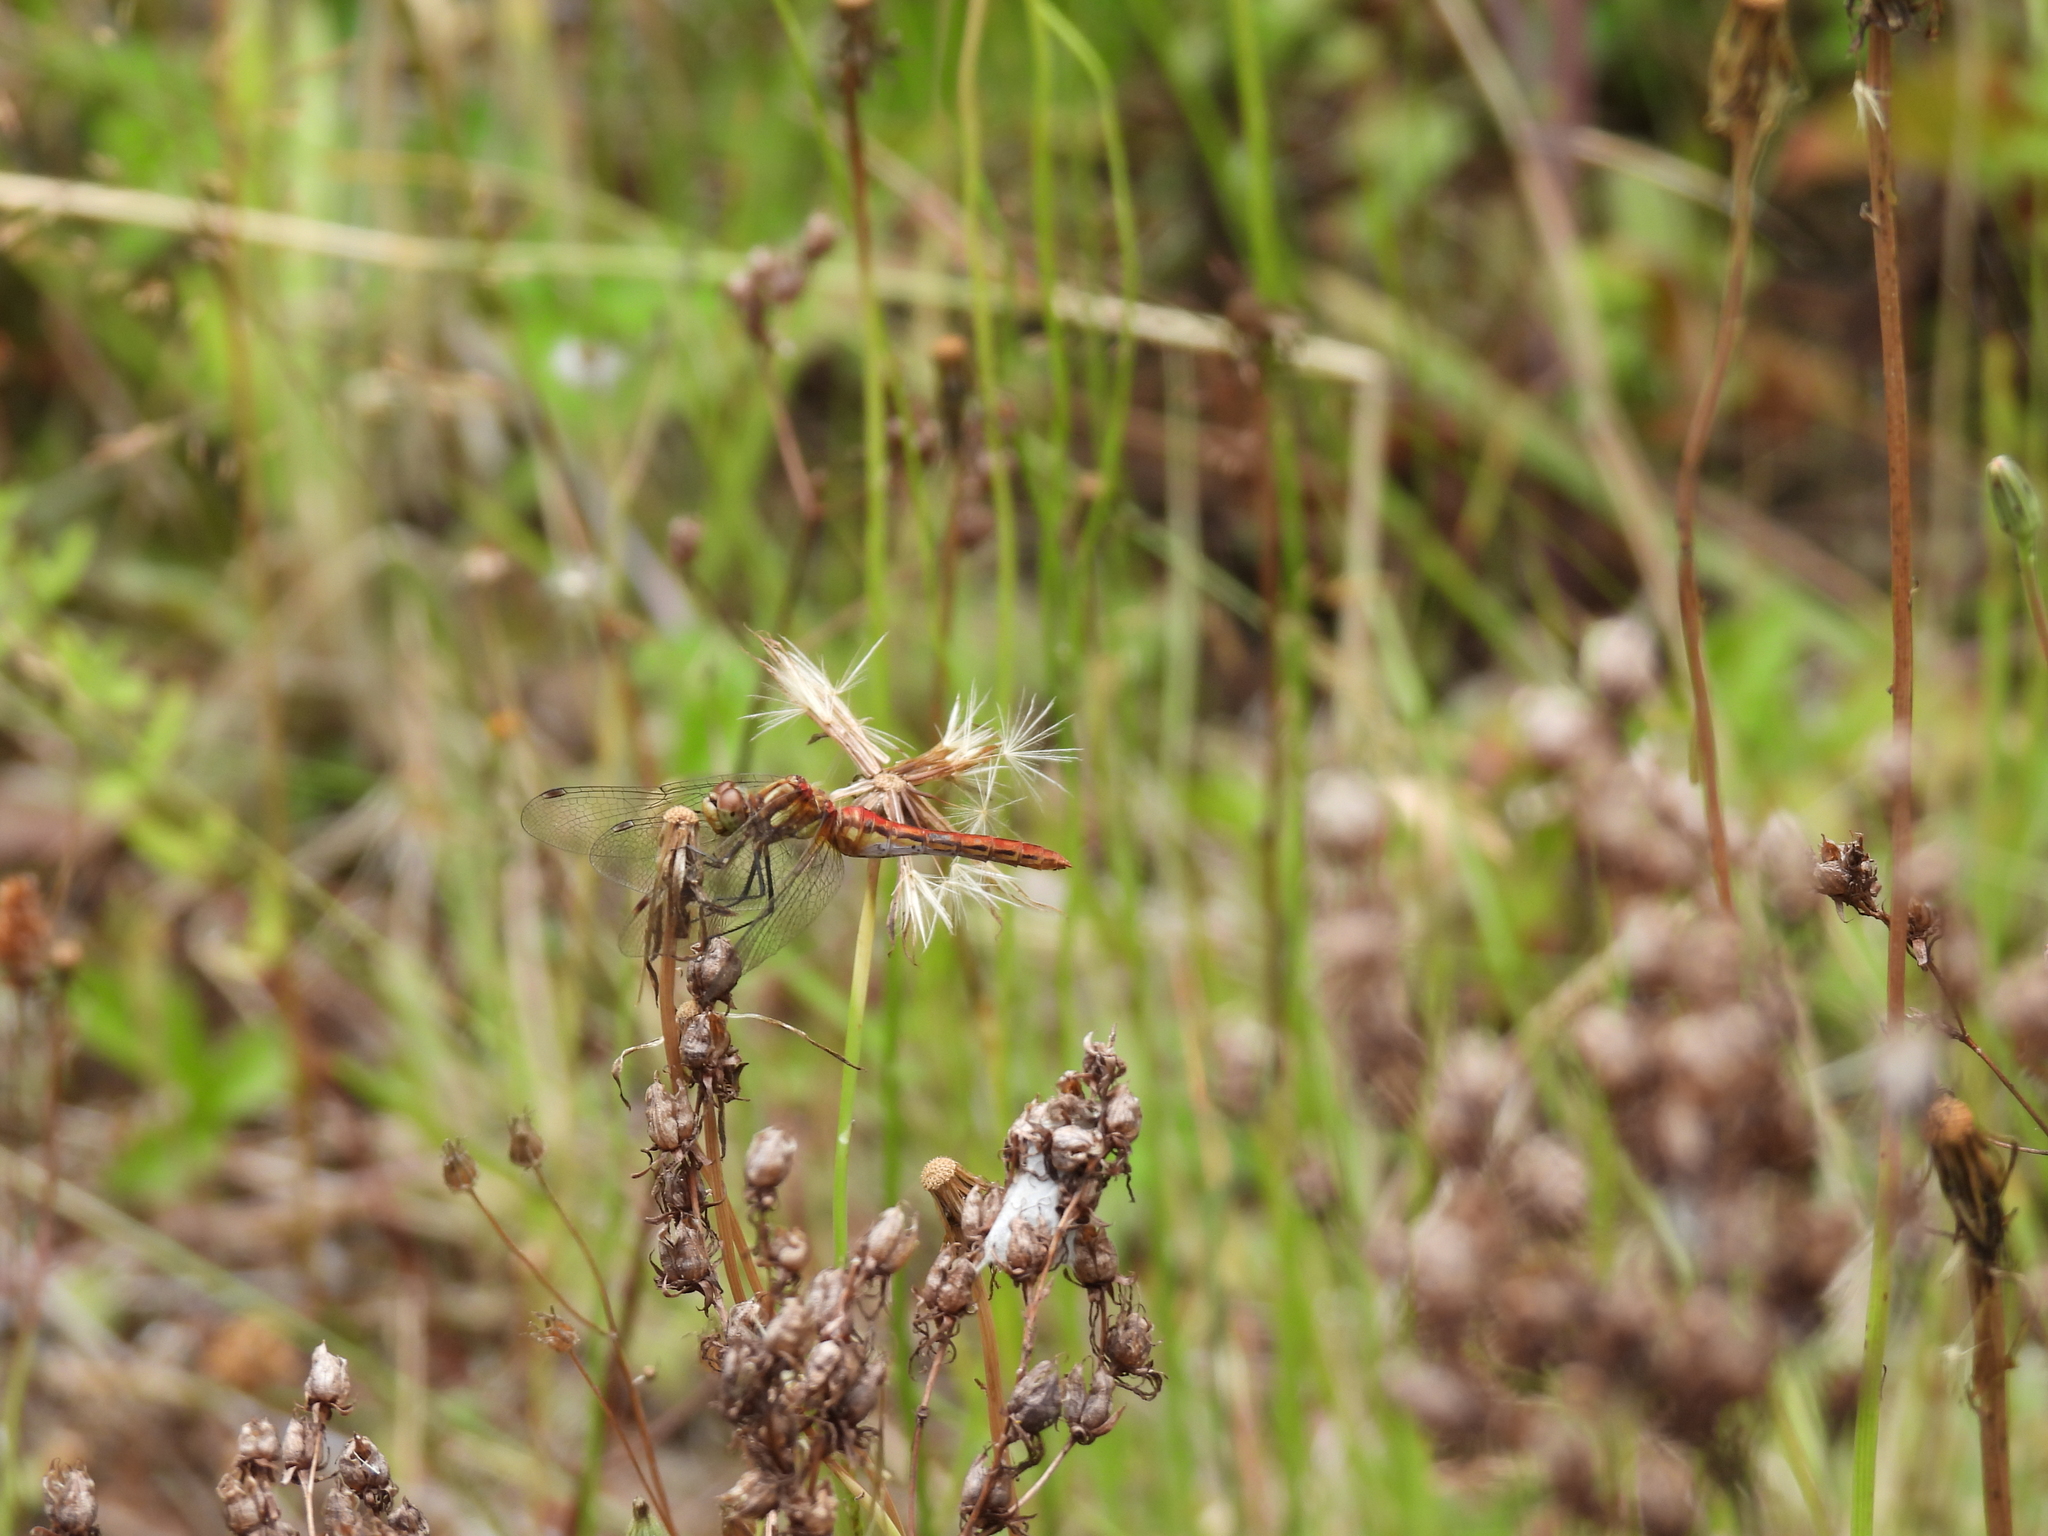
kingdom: Animalia
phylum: Arthropoda
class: Insecta
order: Odonata
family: Libellulidae
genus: Sympetrum
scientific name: Sympetrum pallipes
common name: Striped meadowhawk
